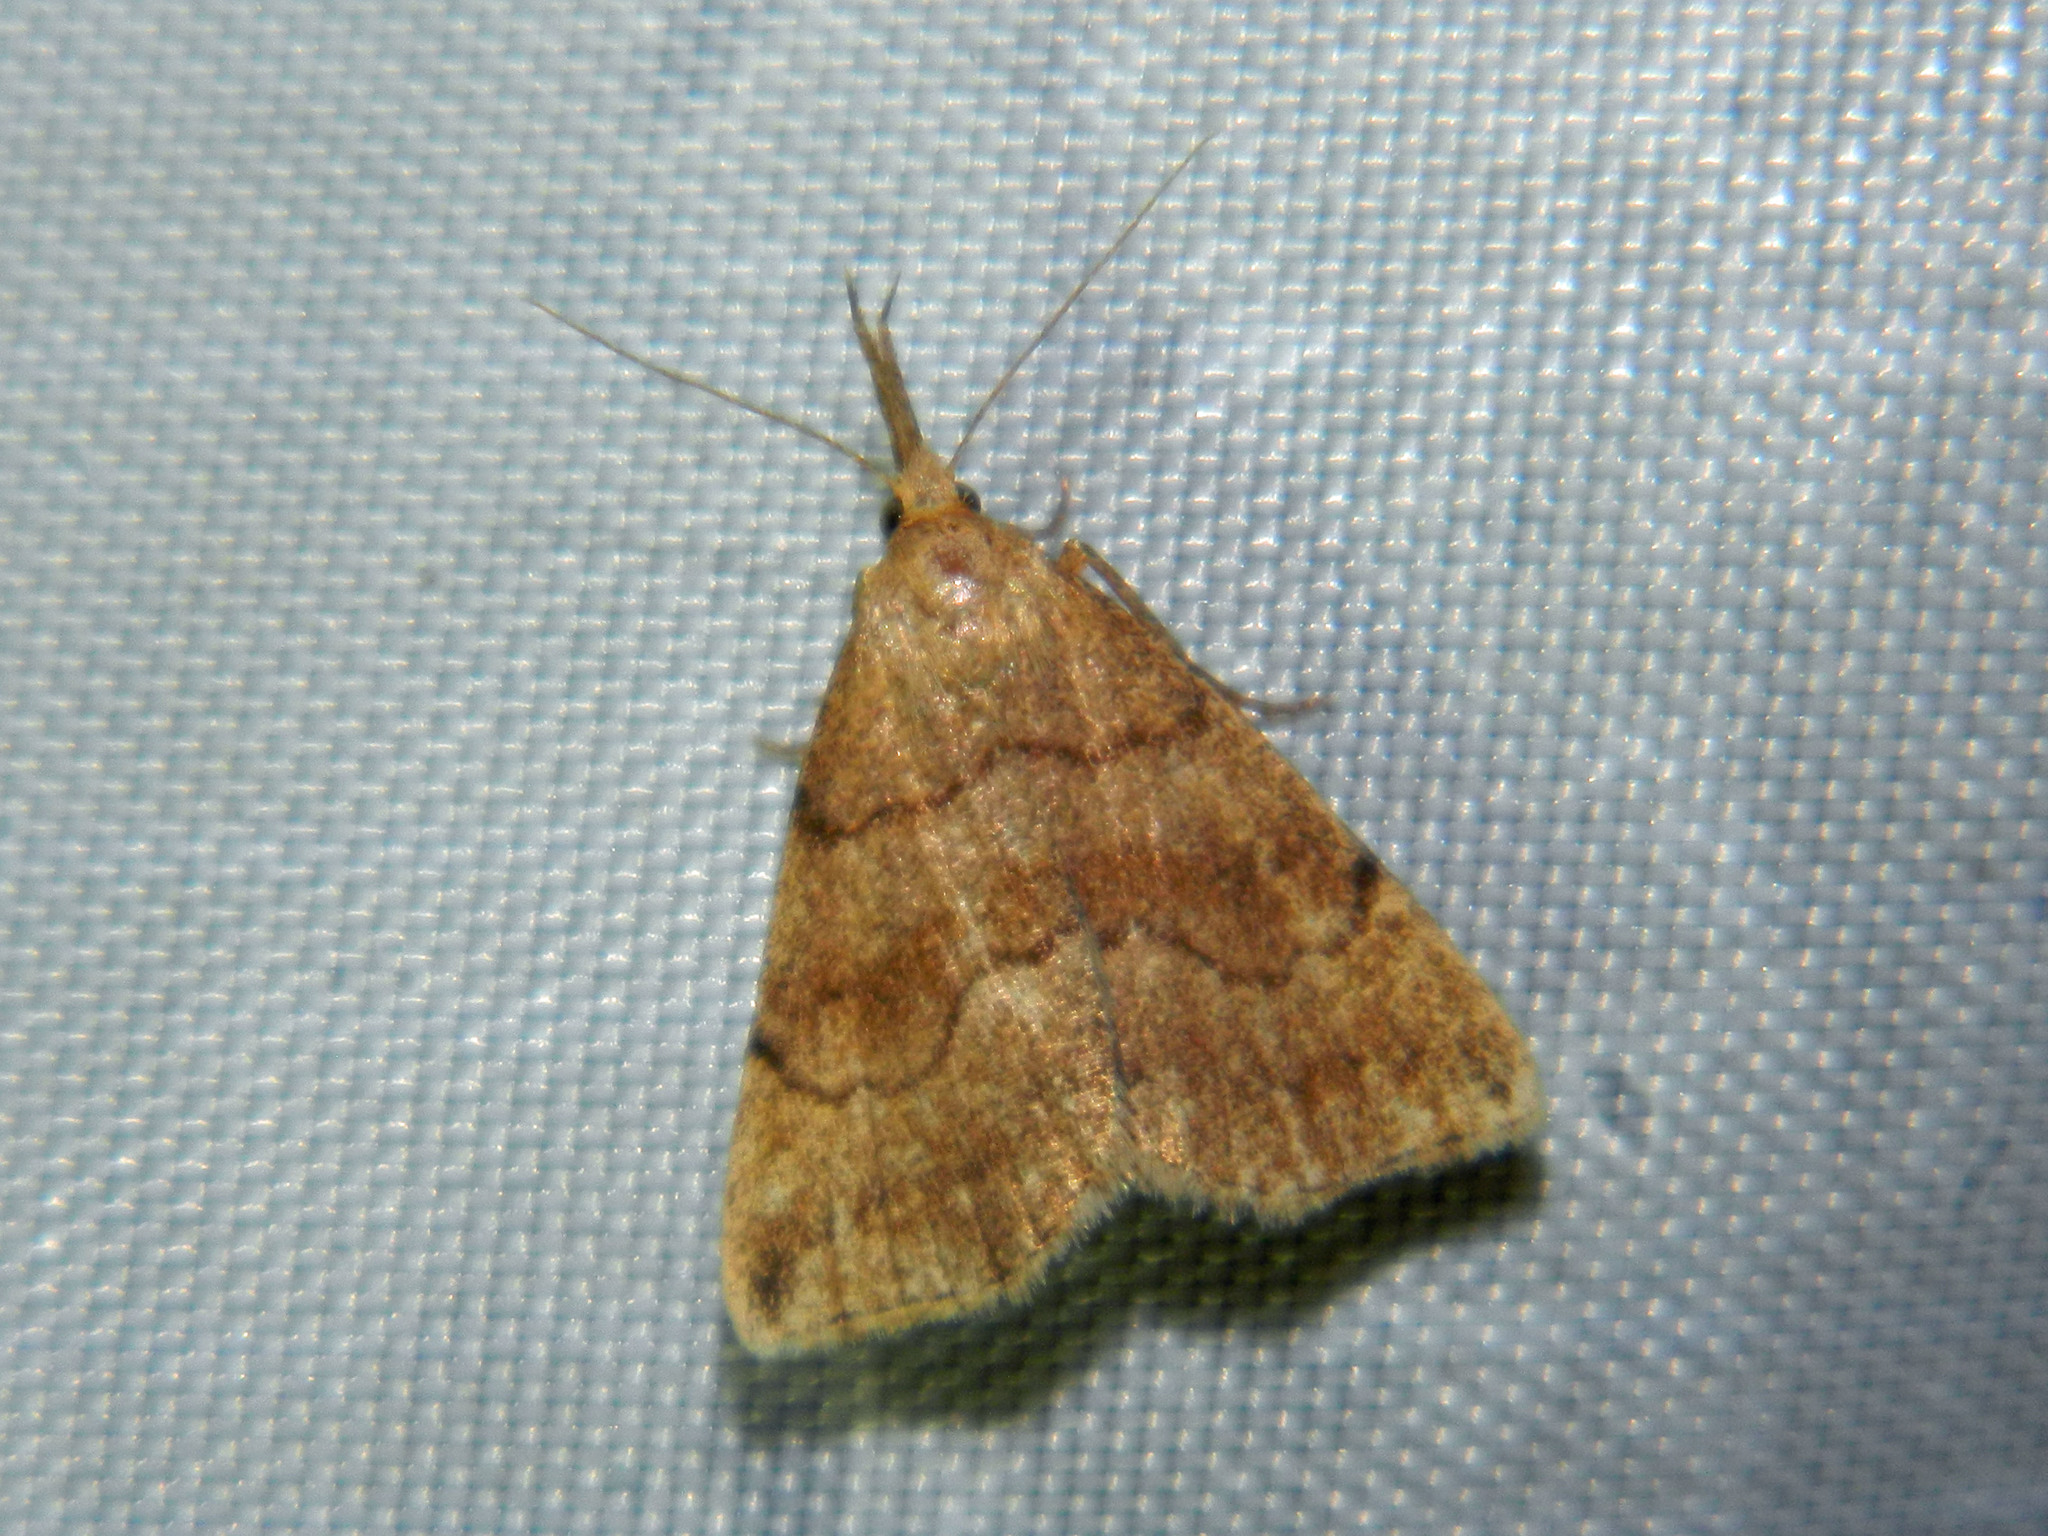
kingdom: Animalia
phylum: Arthropoda
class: Insecta
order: Lepidoptera
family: Erebidae
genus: Phalaenostola
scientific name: Phalaenostola metonalis
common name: Pale phalaenostola moth
